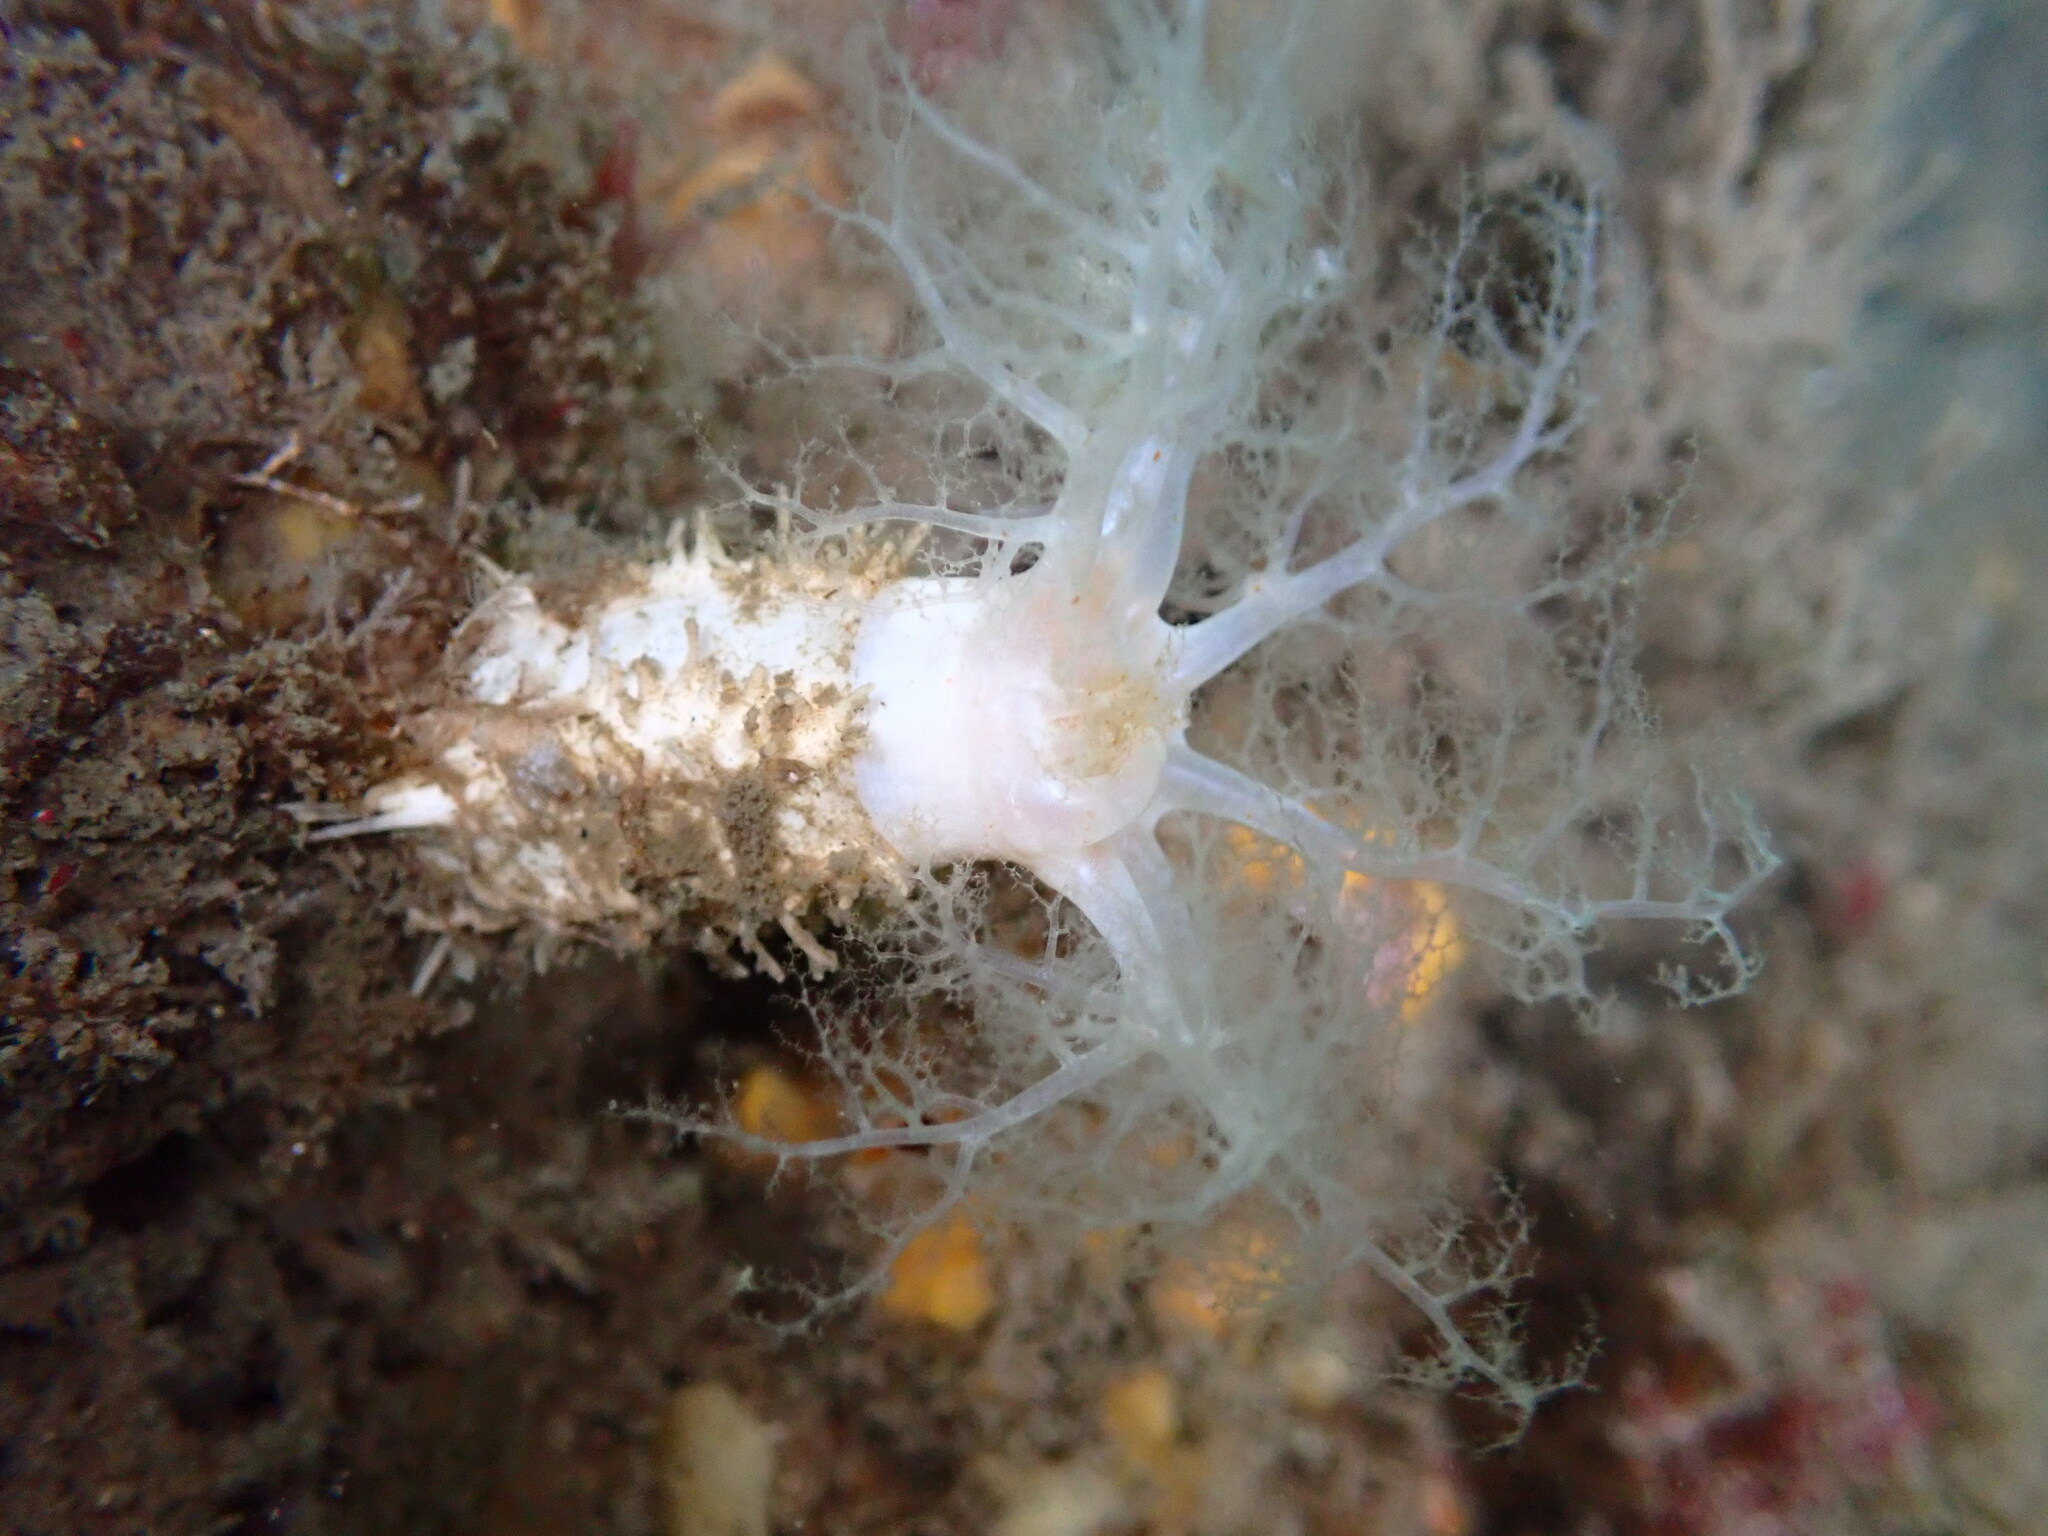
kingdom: Animalia
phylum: Echinodermata
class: Holothuroidea
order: Dendrochirotida
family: Sclerodactylidae
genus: Eupentacta
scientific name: Eupentacta quinquesemita
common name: Pentamerous sea cucumber
